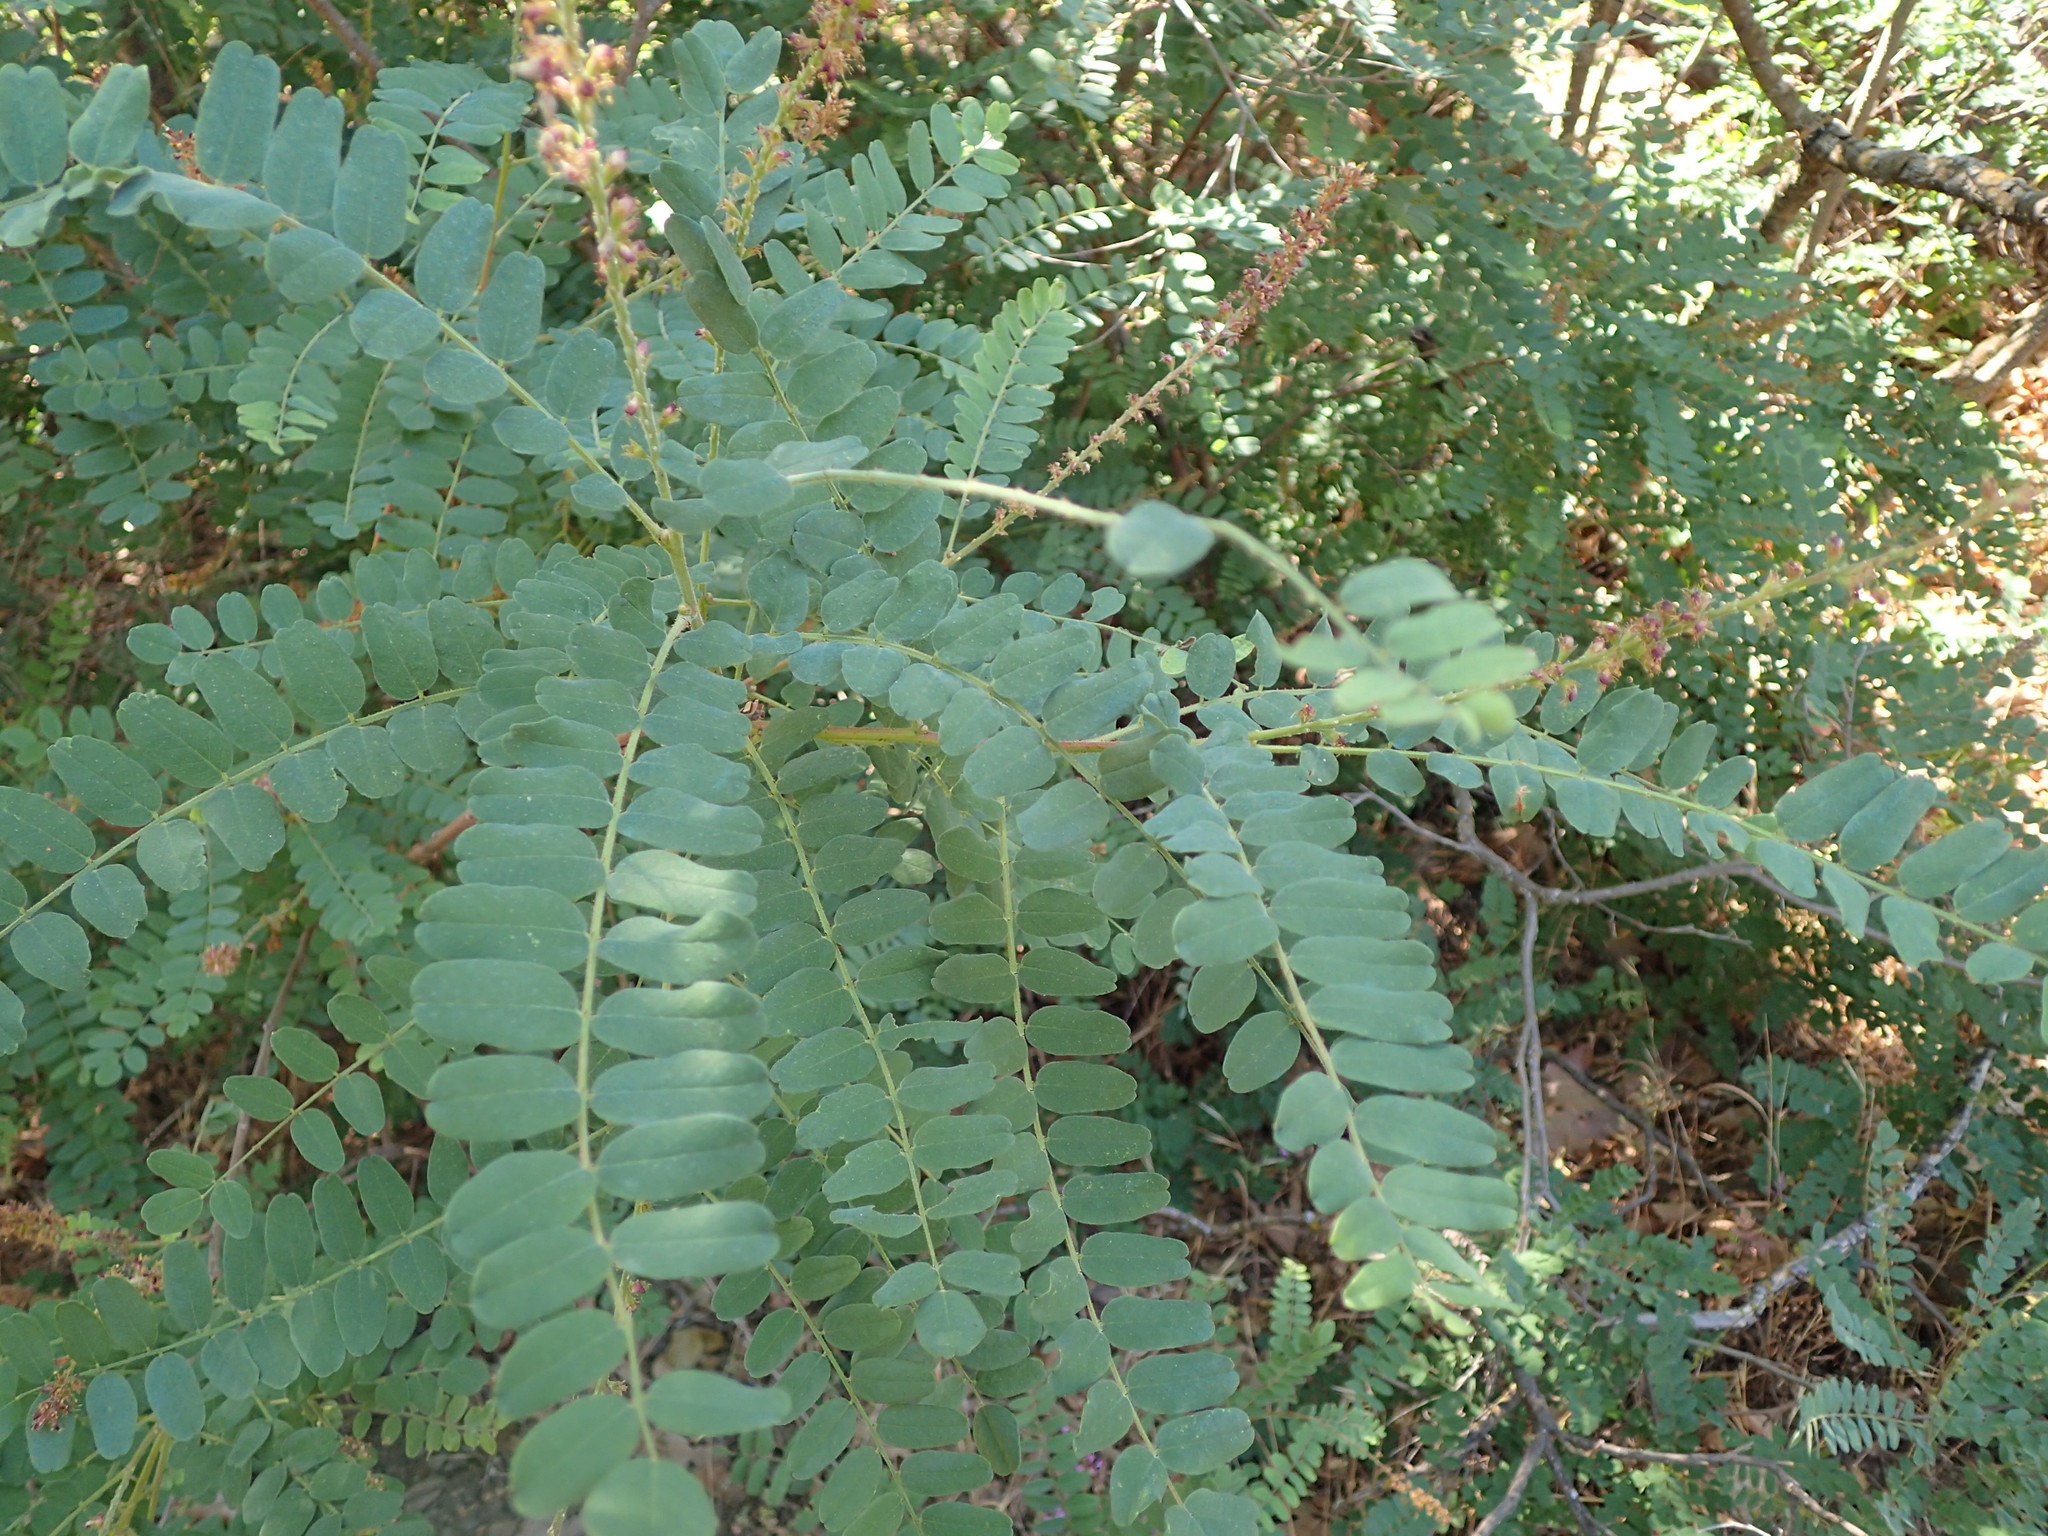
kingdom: Plantae
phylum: Tracheophyta
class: Magnoliopsida
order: Fabales
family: Fabaceae
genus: Amorpha
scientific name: Amorpha californica
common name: California indigobush
